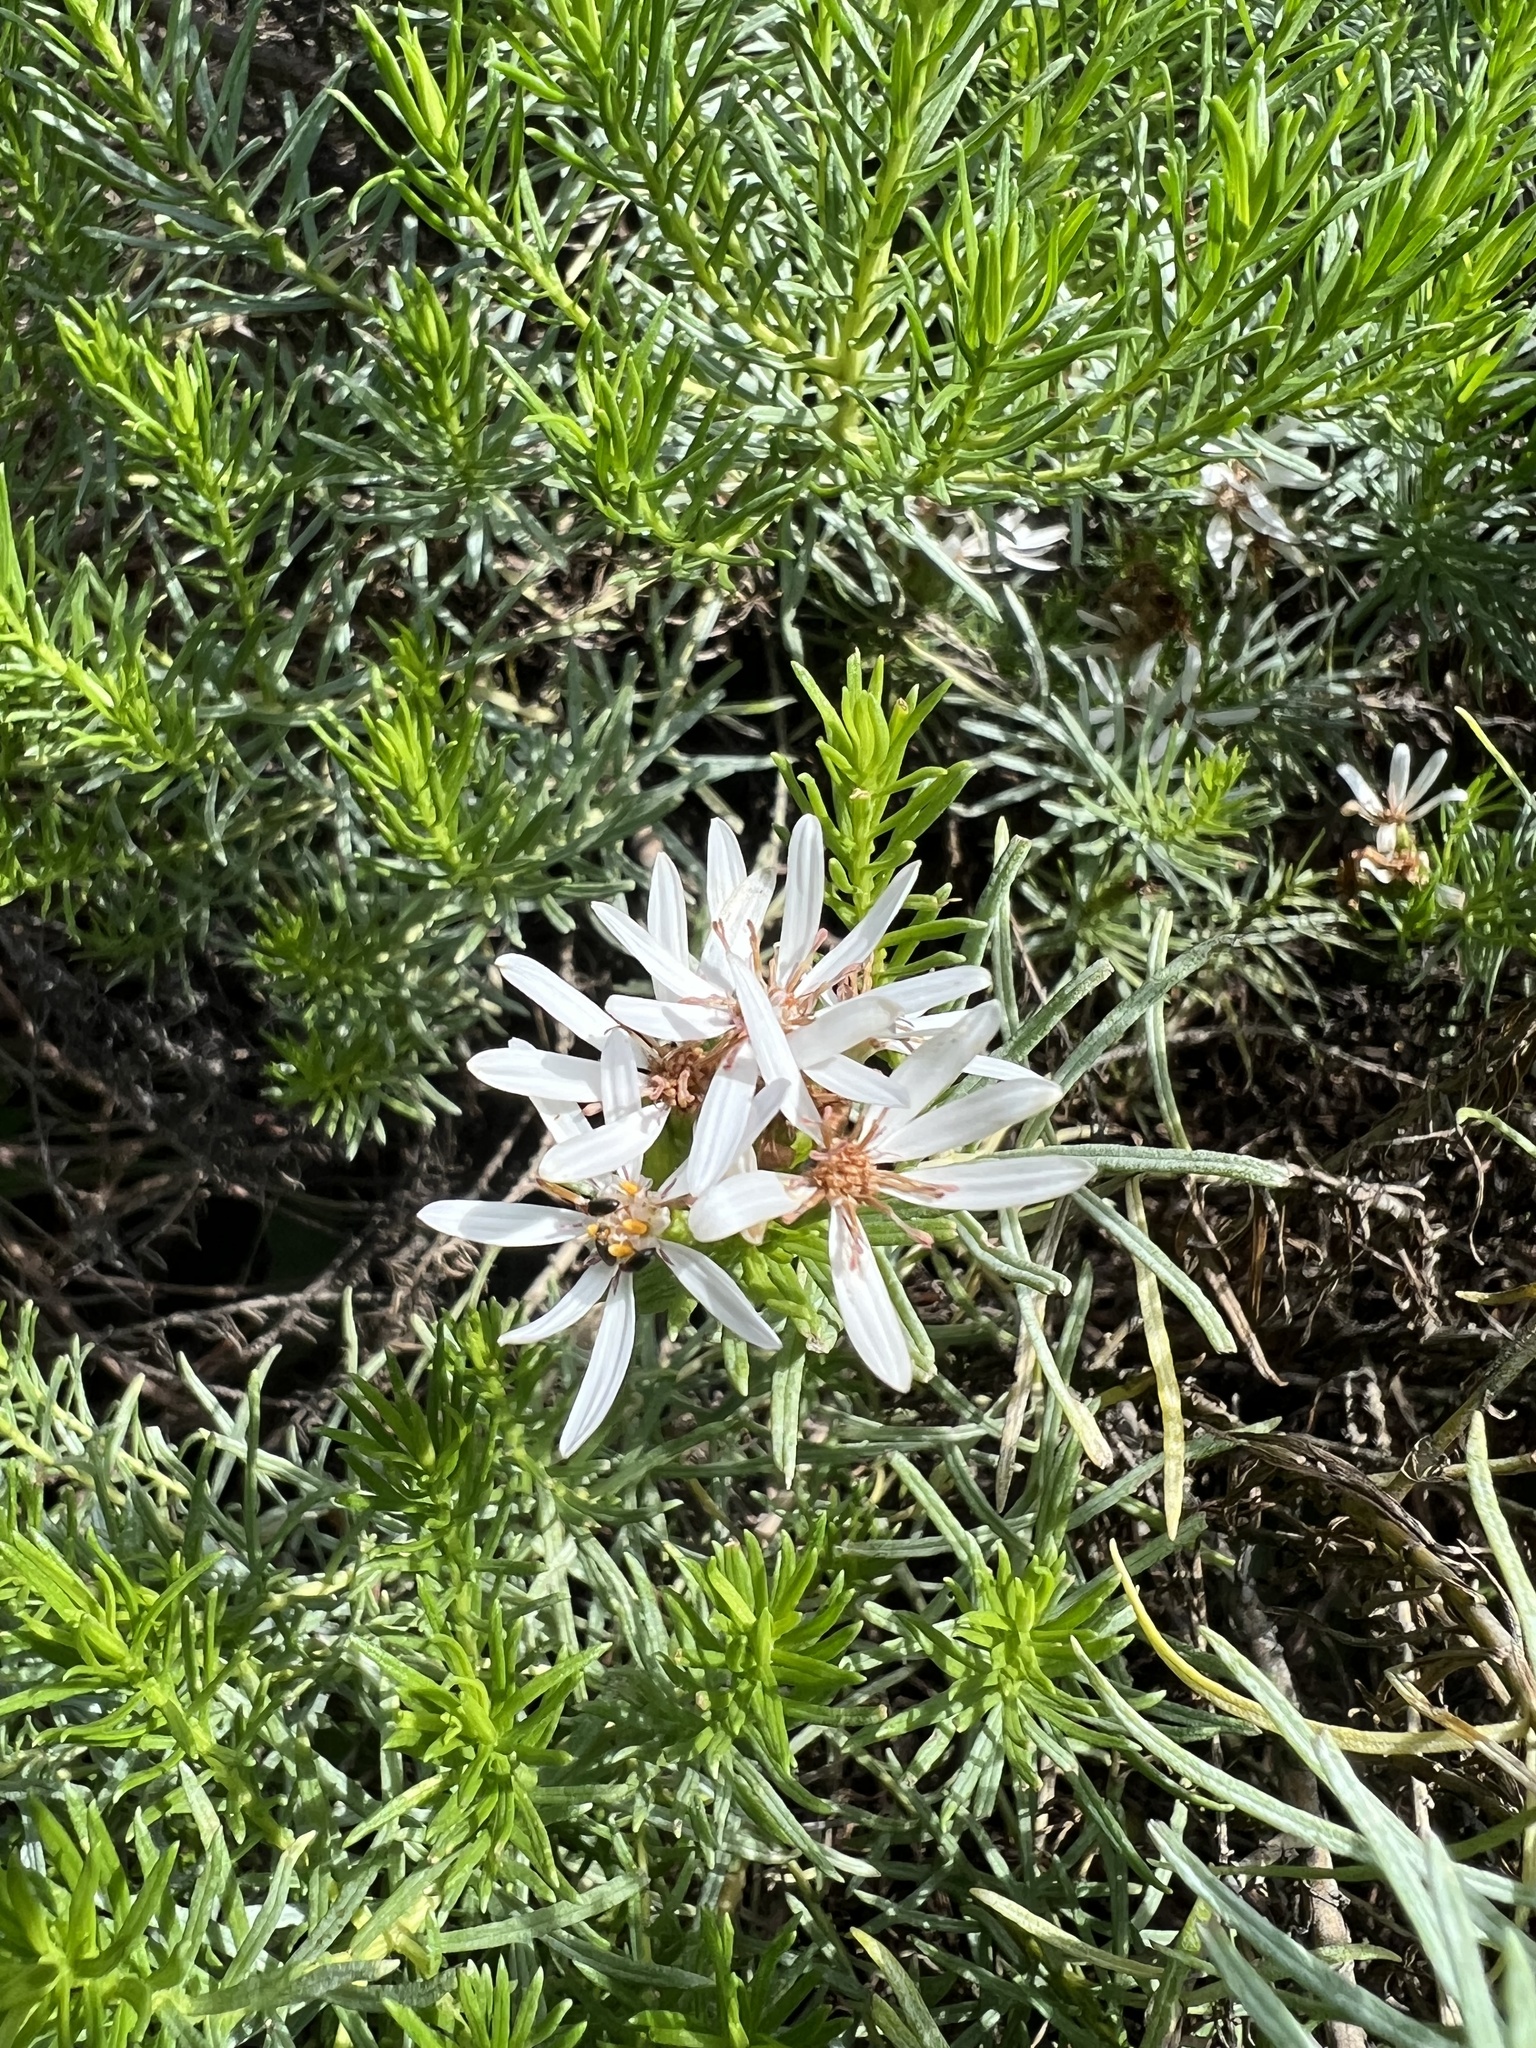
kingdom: Plantae
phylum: Tracheophyta
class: Magnoliopsida
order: Asterales
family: Asteraceae
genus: Olearia
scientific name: Olearia glutinosa
